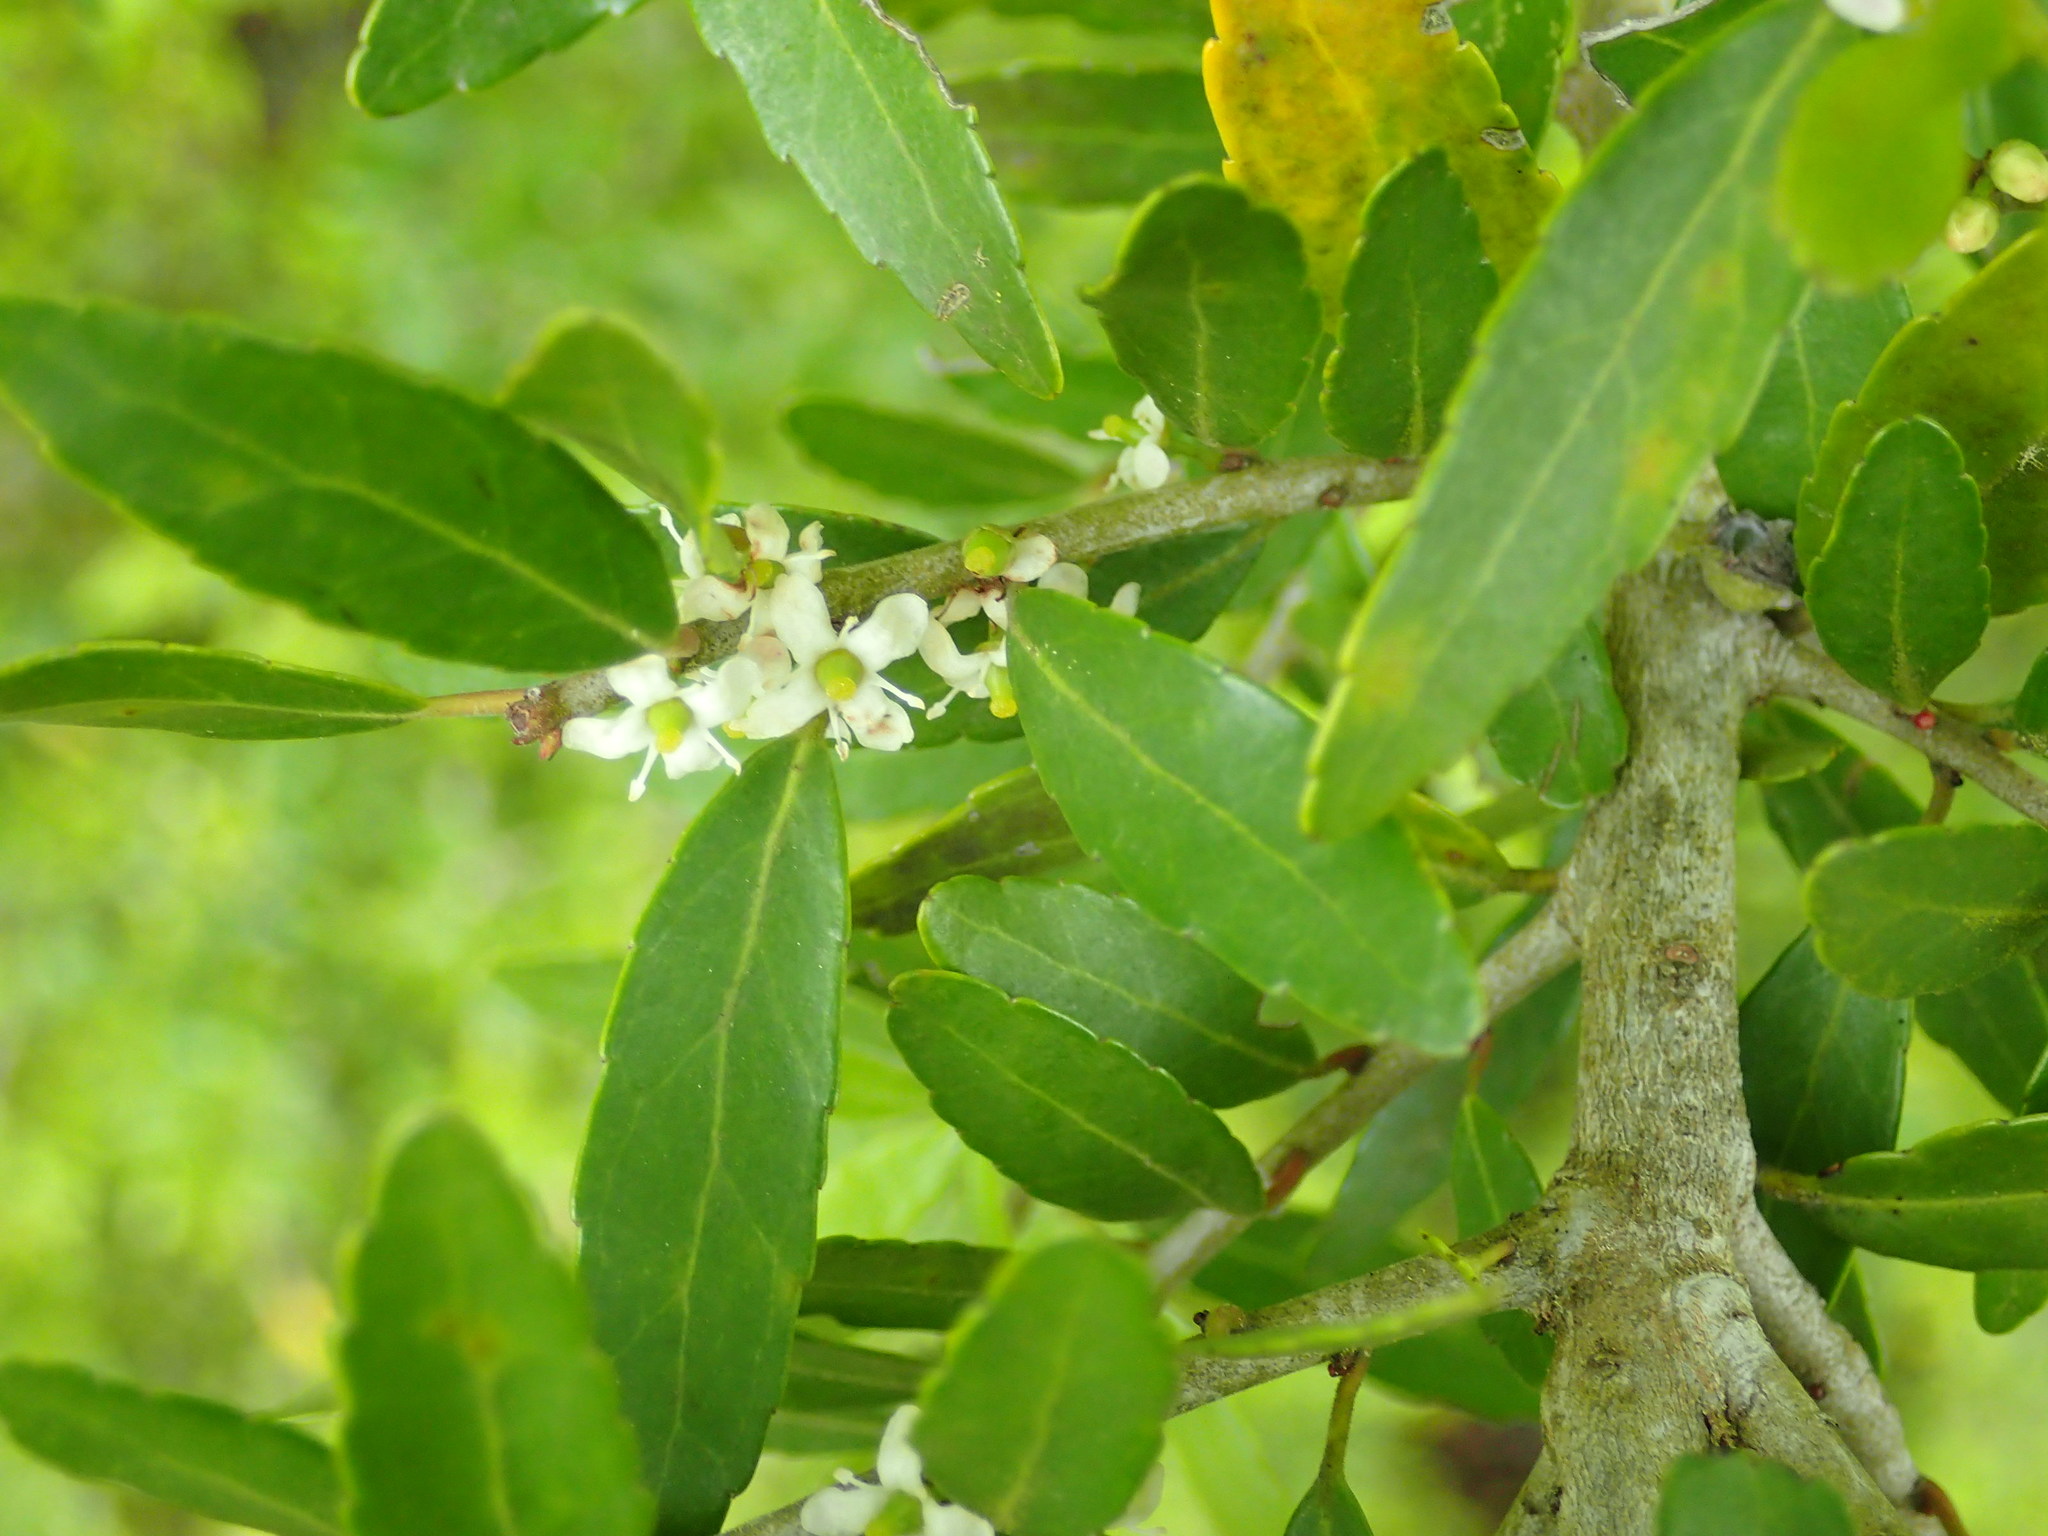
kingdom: Plantae
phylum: Tracheophyta
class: Magnoliopsida
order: Aquifoliales
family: Aquifoliaceae
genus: Ilex
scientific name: Ilex vomitoria
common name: Yaupon holly
